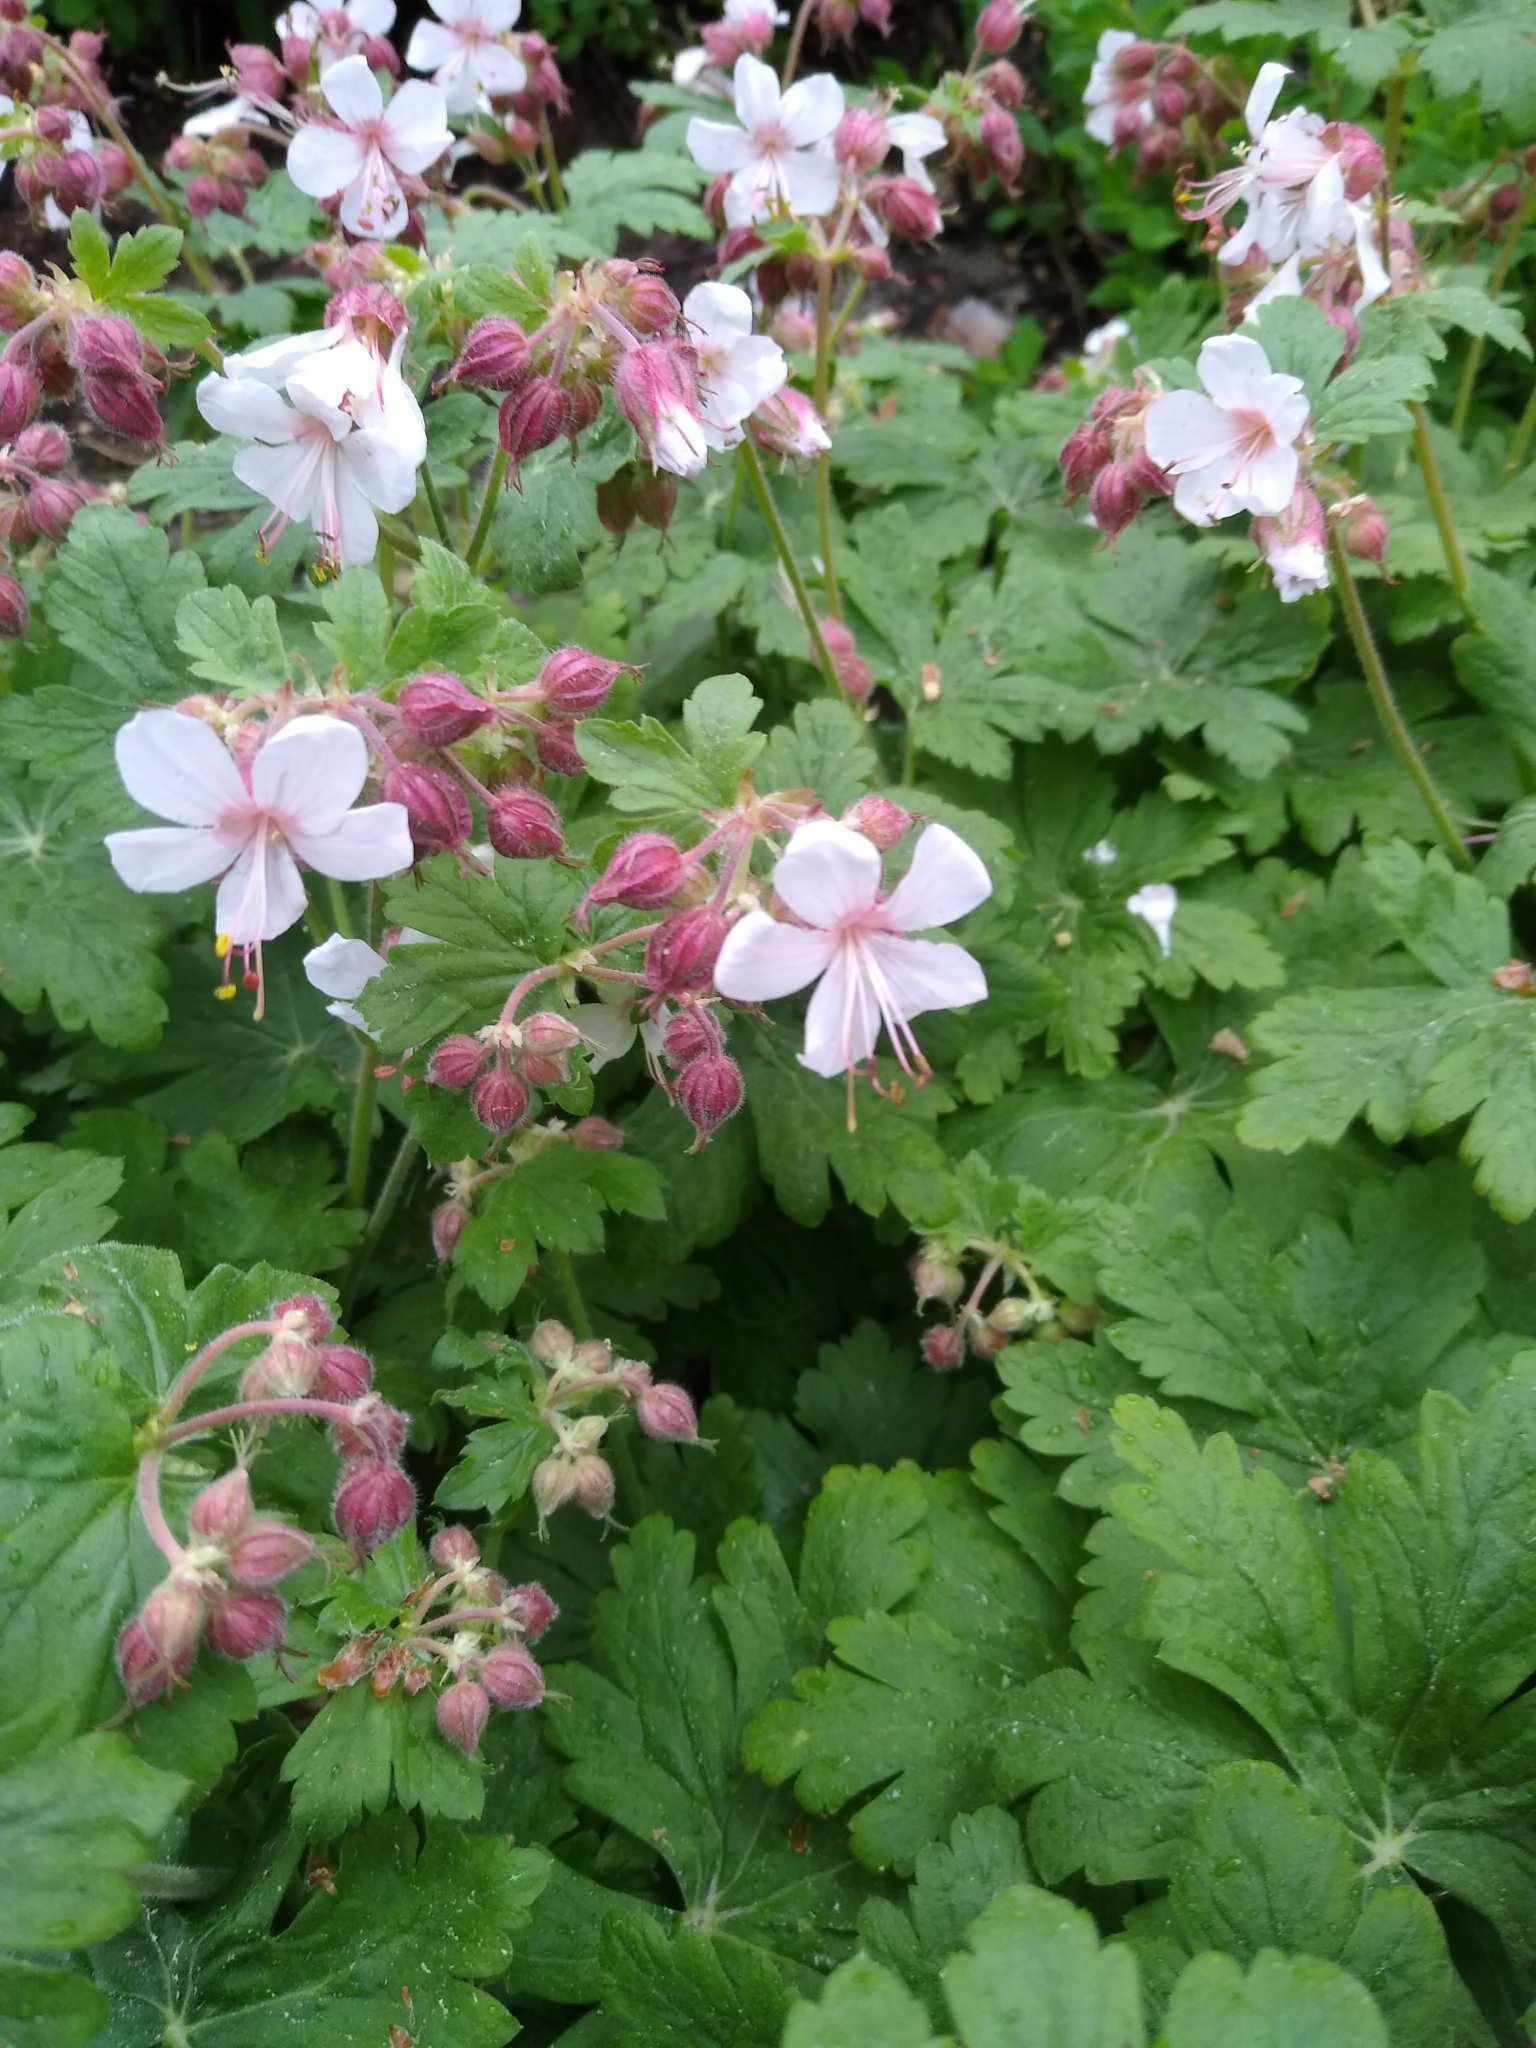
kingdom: Plantae
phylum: Tracheophyta
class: Magnoliopsida
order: Geraniales
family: Geraniaceae
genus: Geranium
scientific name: Geranium macrorrhizum
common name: Rock crane's-bill
